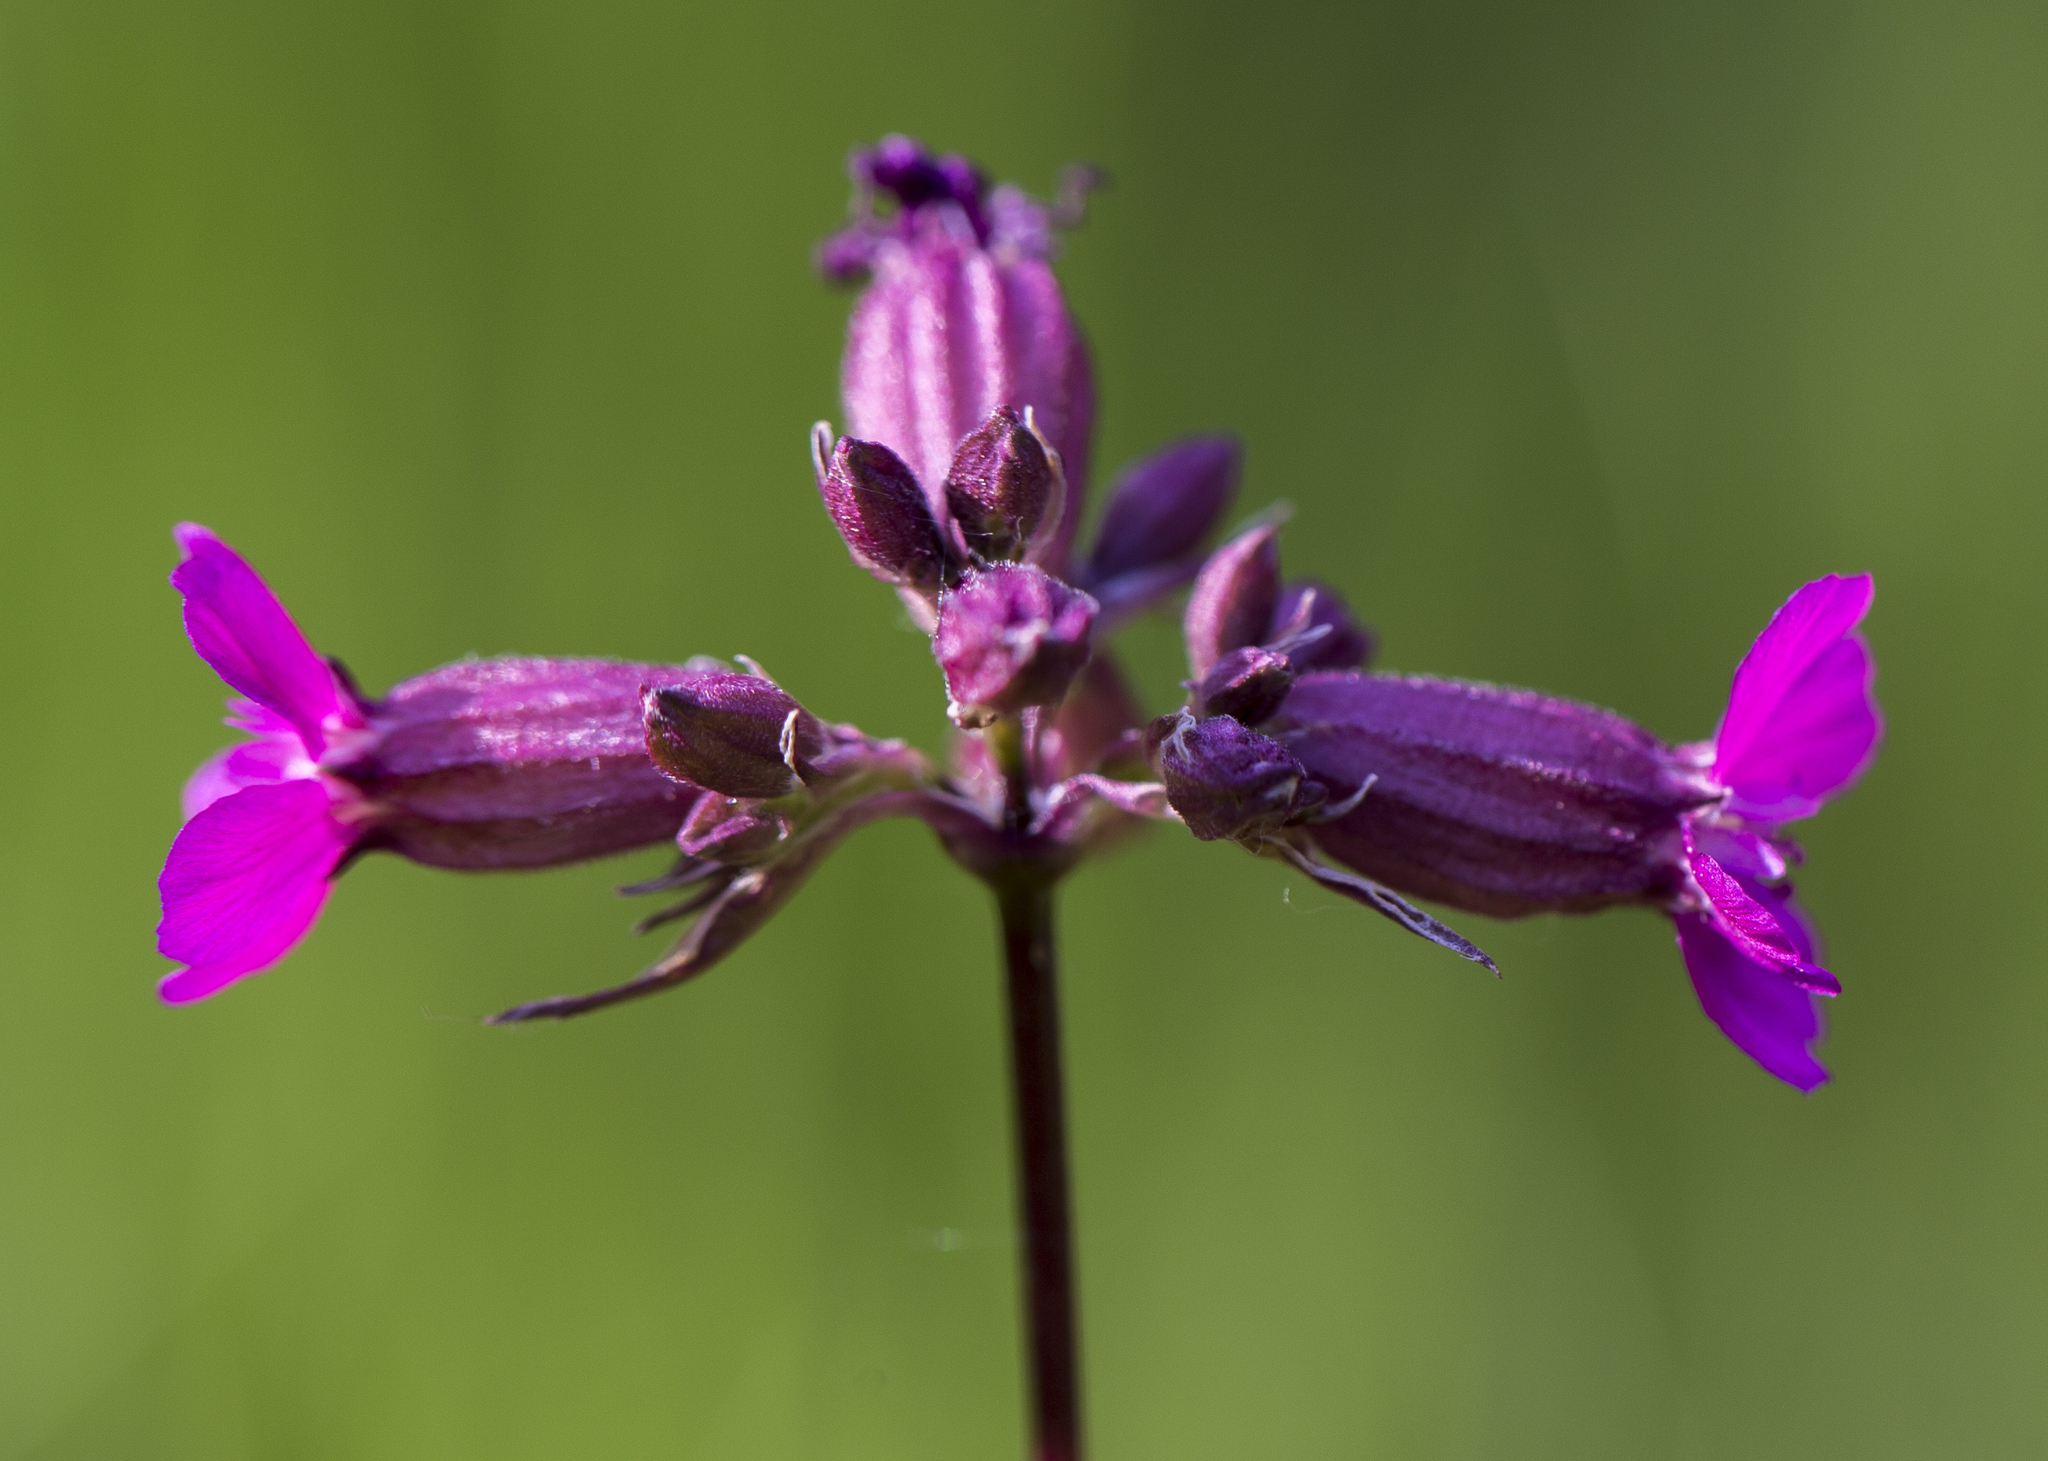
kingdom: Plantae
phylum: Tracheophyta
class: Magnoliopsida
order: Caryophyllales
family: Caryophyllaceae
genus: Viscaria
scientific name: Viscaria vulgaris
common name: Clammy campion
